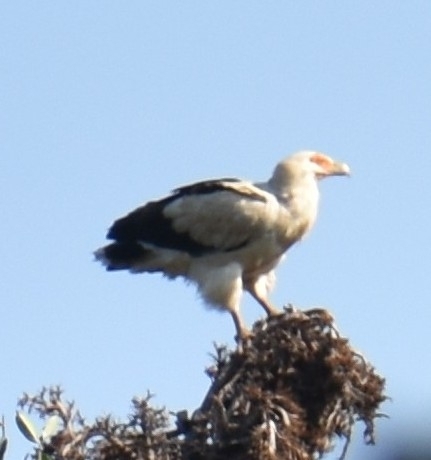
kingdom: Animalia
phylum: Chordata
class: Aves
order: Accipitriformes
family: Accipitridae
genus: Gypohierax
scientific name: Gypohierax angolensis
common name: Palm-nut vulture
